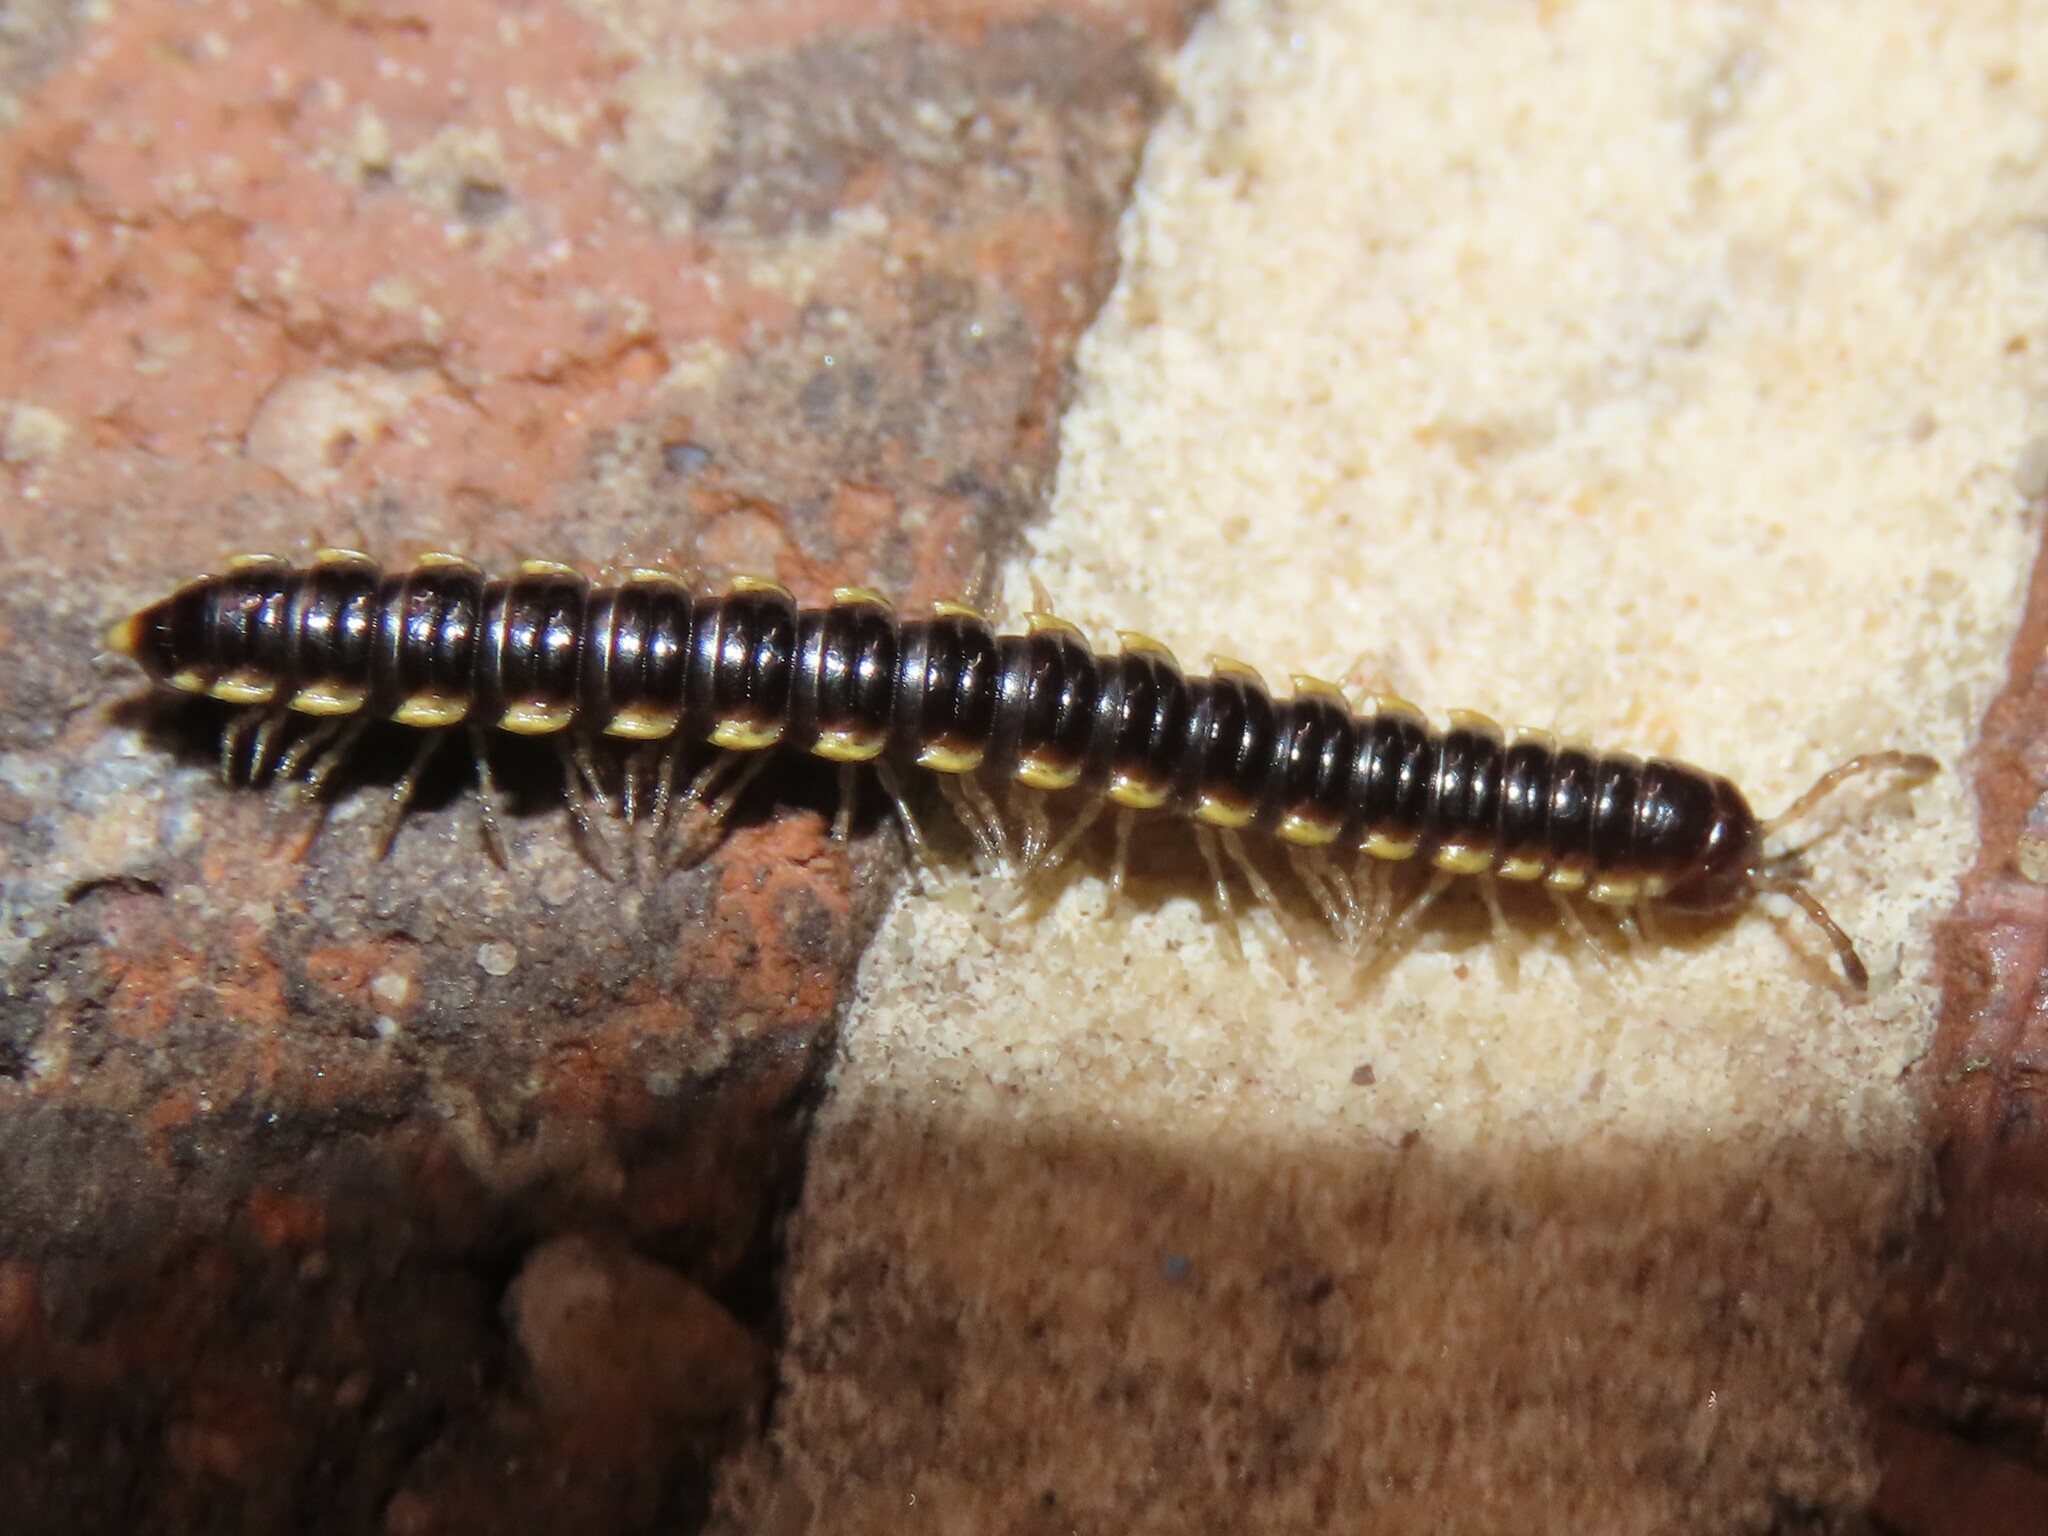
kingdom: Animalia
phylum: Arthropoda
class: Diplopoda
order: Polydesmida
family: Paradoxosomatidae
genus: Orthomorpha
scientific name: Orthomorpha coarctata
